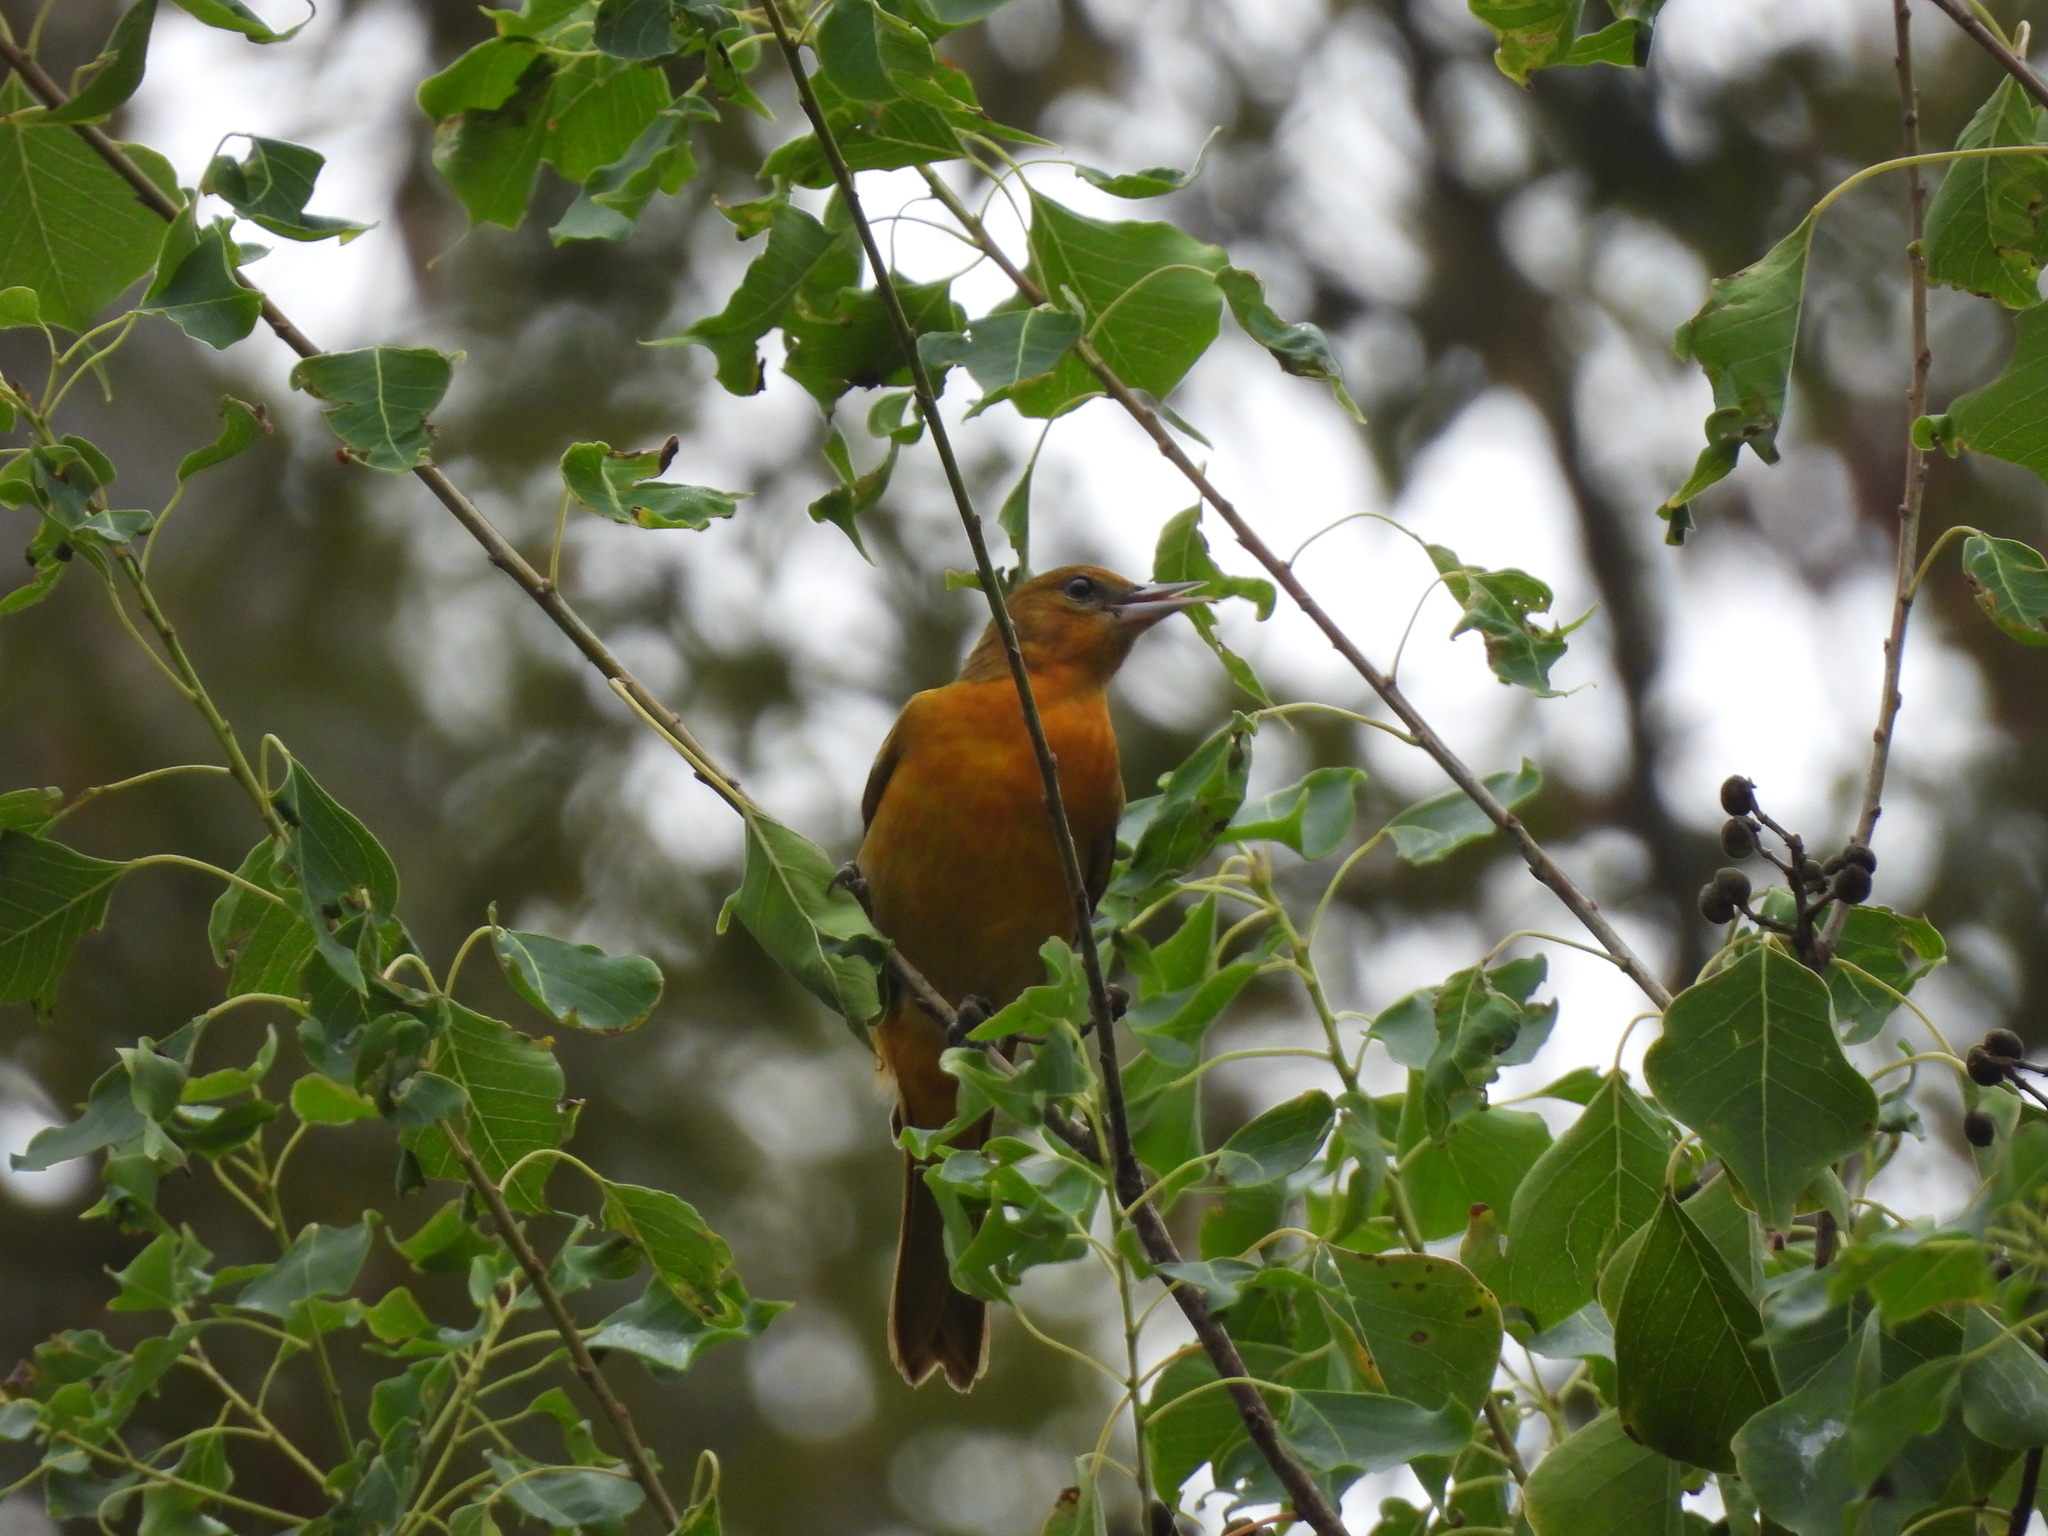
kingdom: Animalia
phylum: Chordata
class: Aves
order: Passeriformes
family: Icteridae
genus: Icterus
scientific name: Icterus galbula
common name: Baltimore oriole
